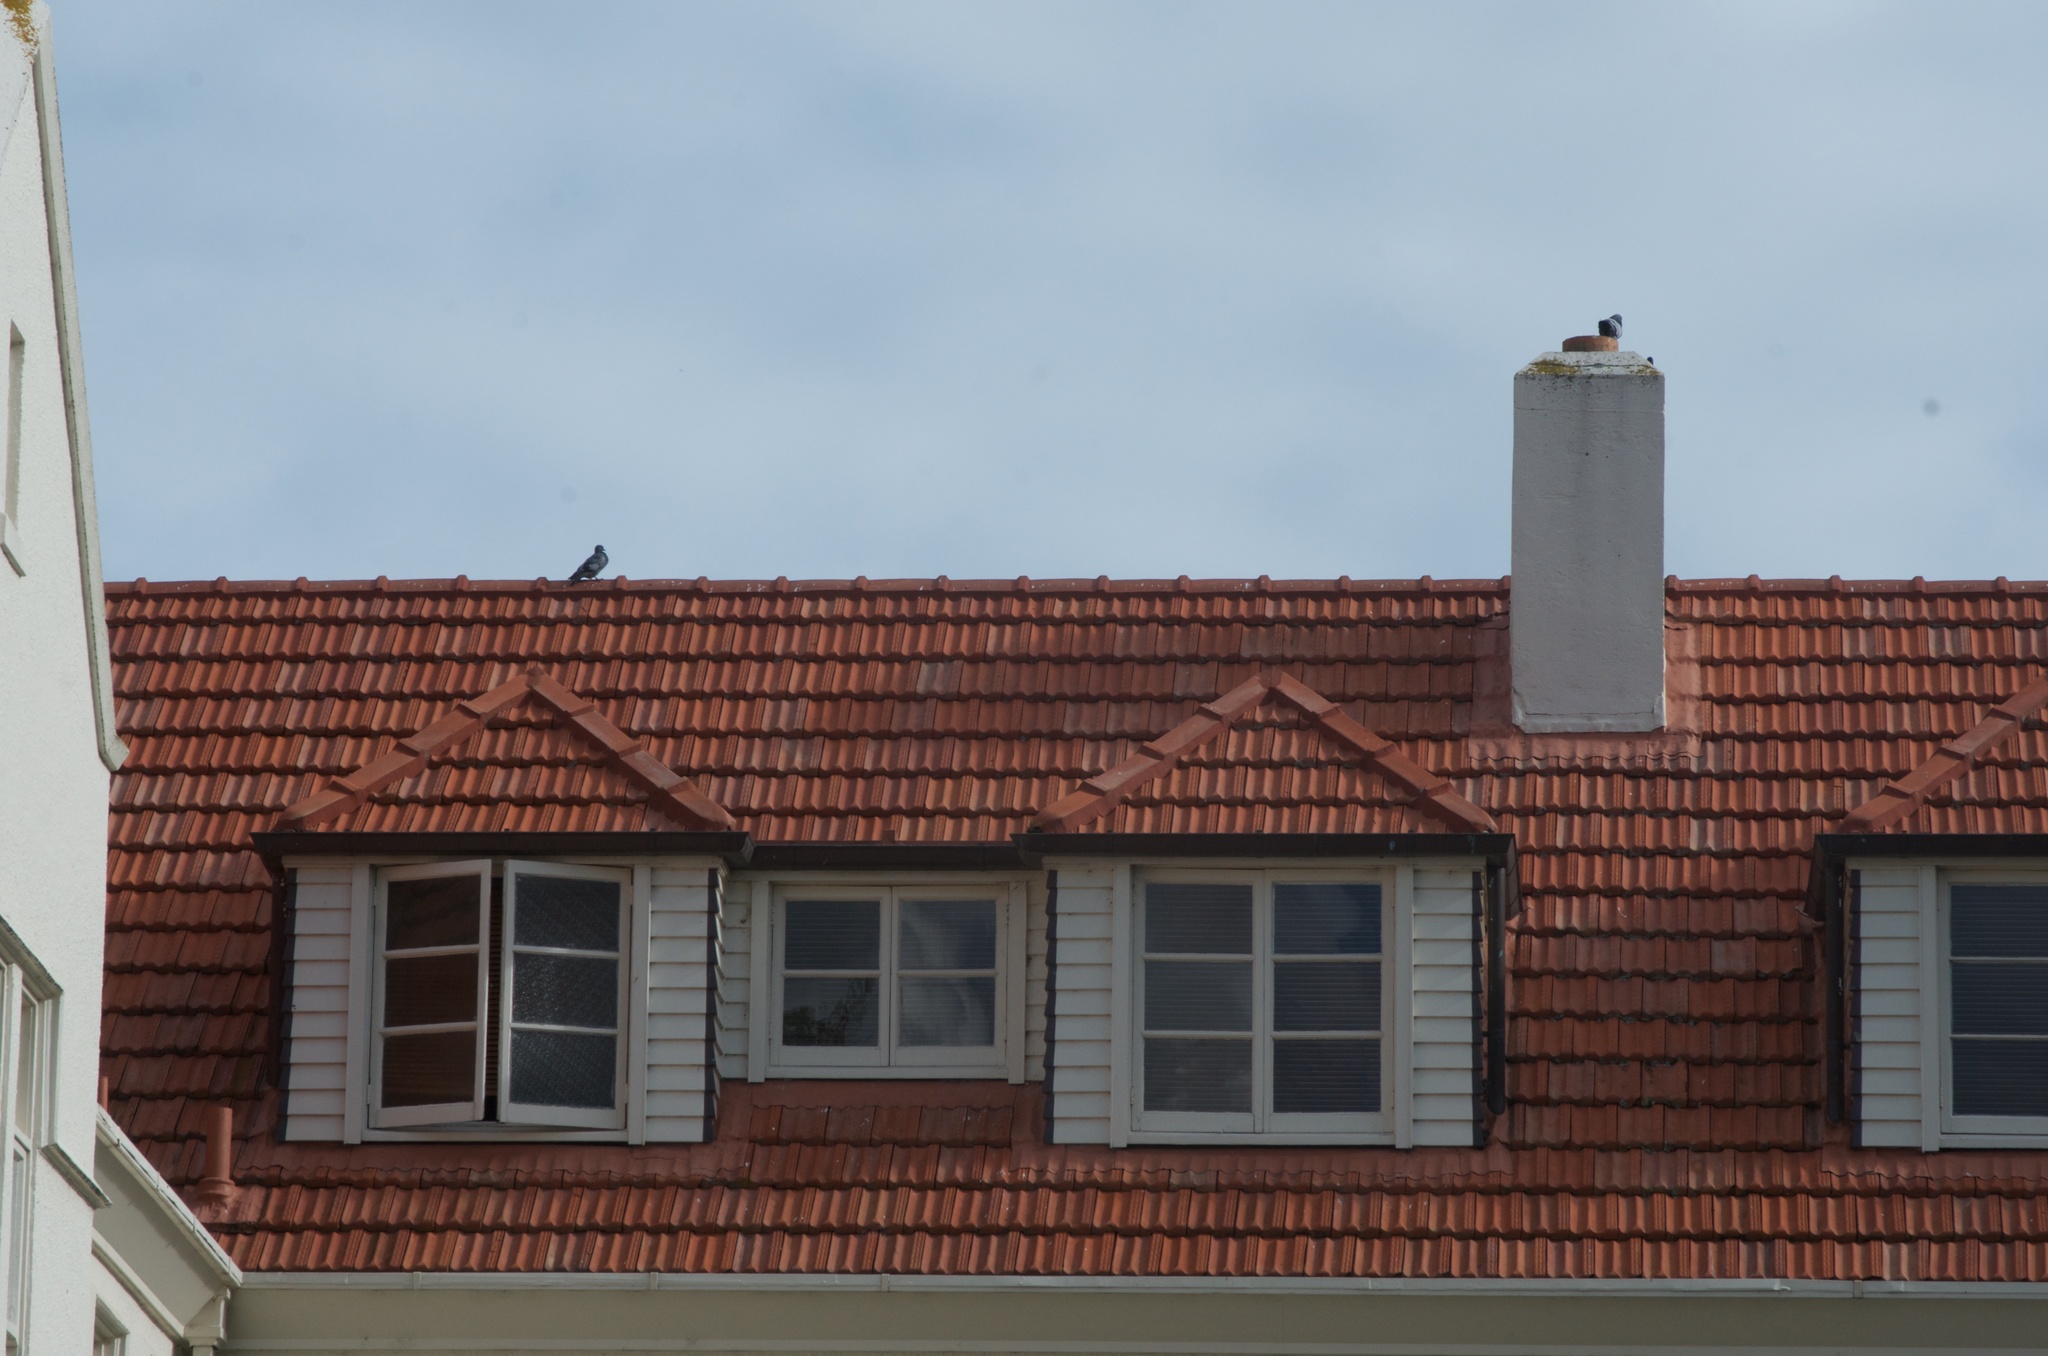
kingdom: Animalia
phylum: Chordata
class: Aves
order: Columbiformes
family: Columbidae
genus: Columba
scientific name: Columba livia
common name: Rock pigeon
